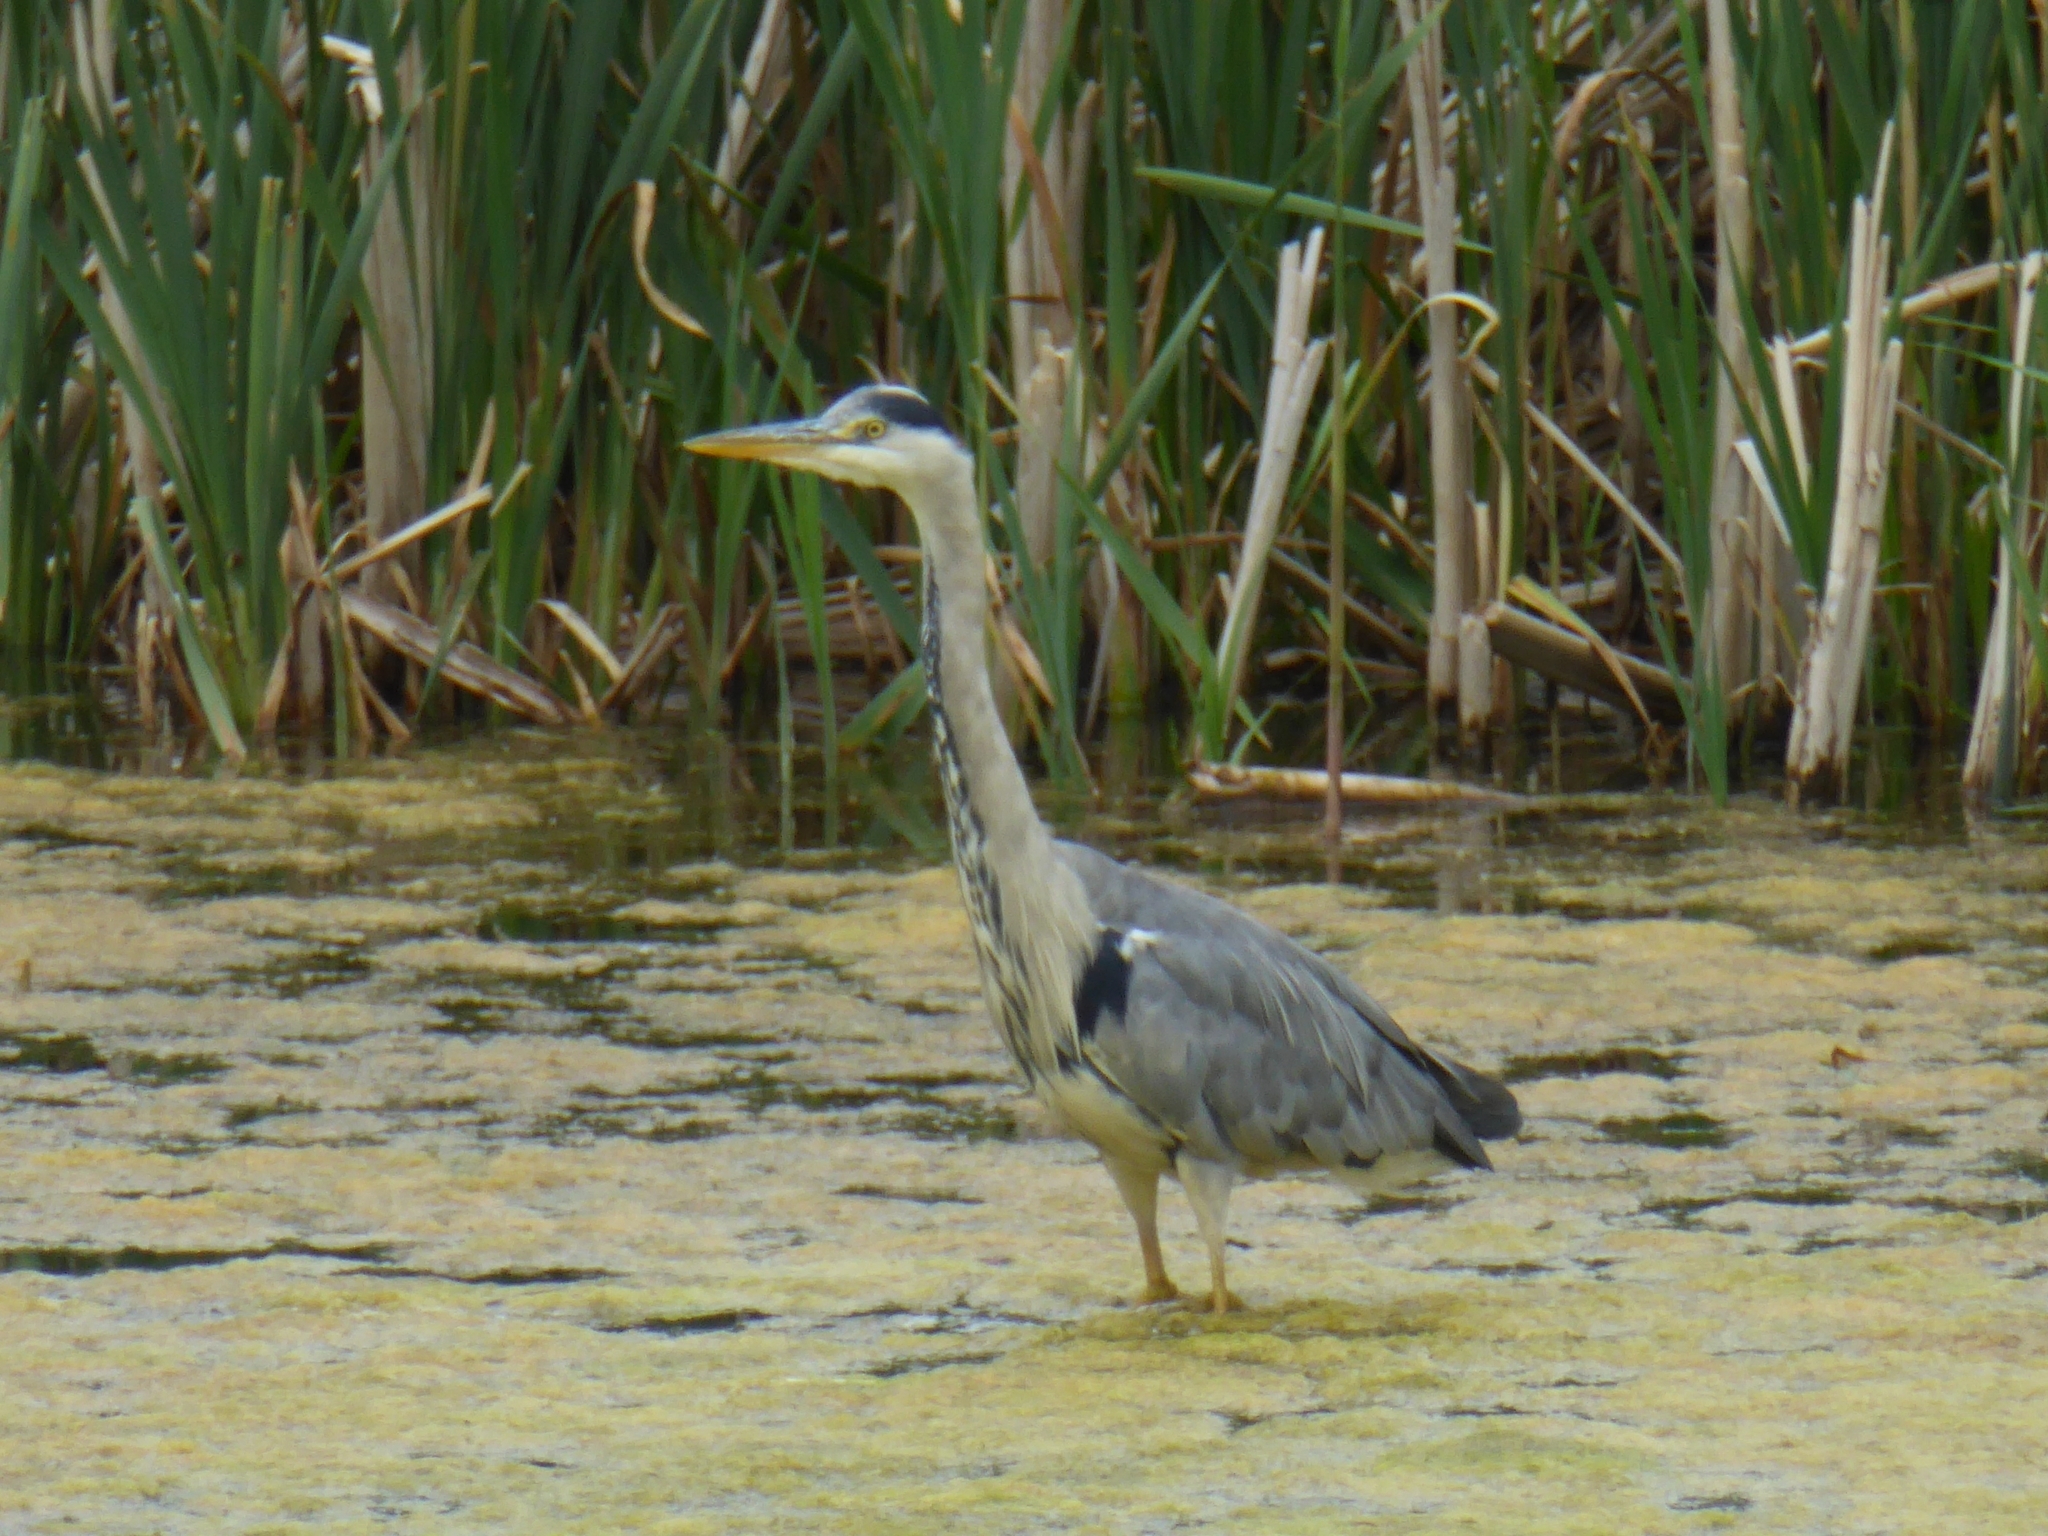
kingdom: Animalia
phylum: Chordata
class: Aves
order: Pelecaniformes
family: Ardeidae
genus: Ardea
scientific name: Ardea cinerea
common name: Grey heron
